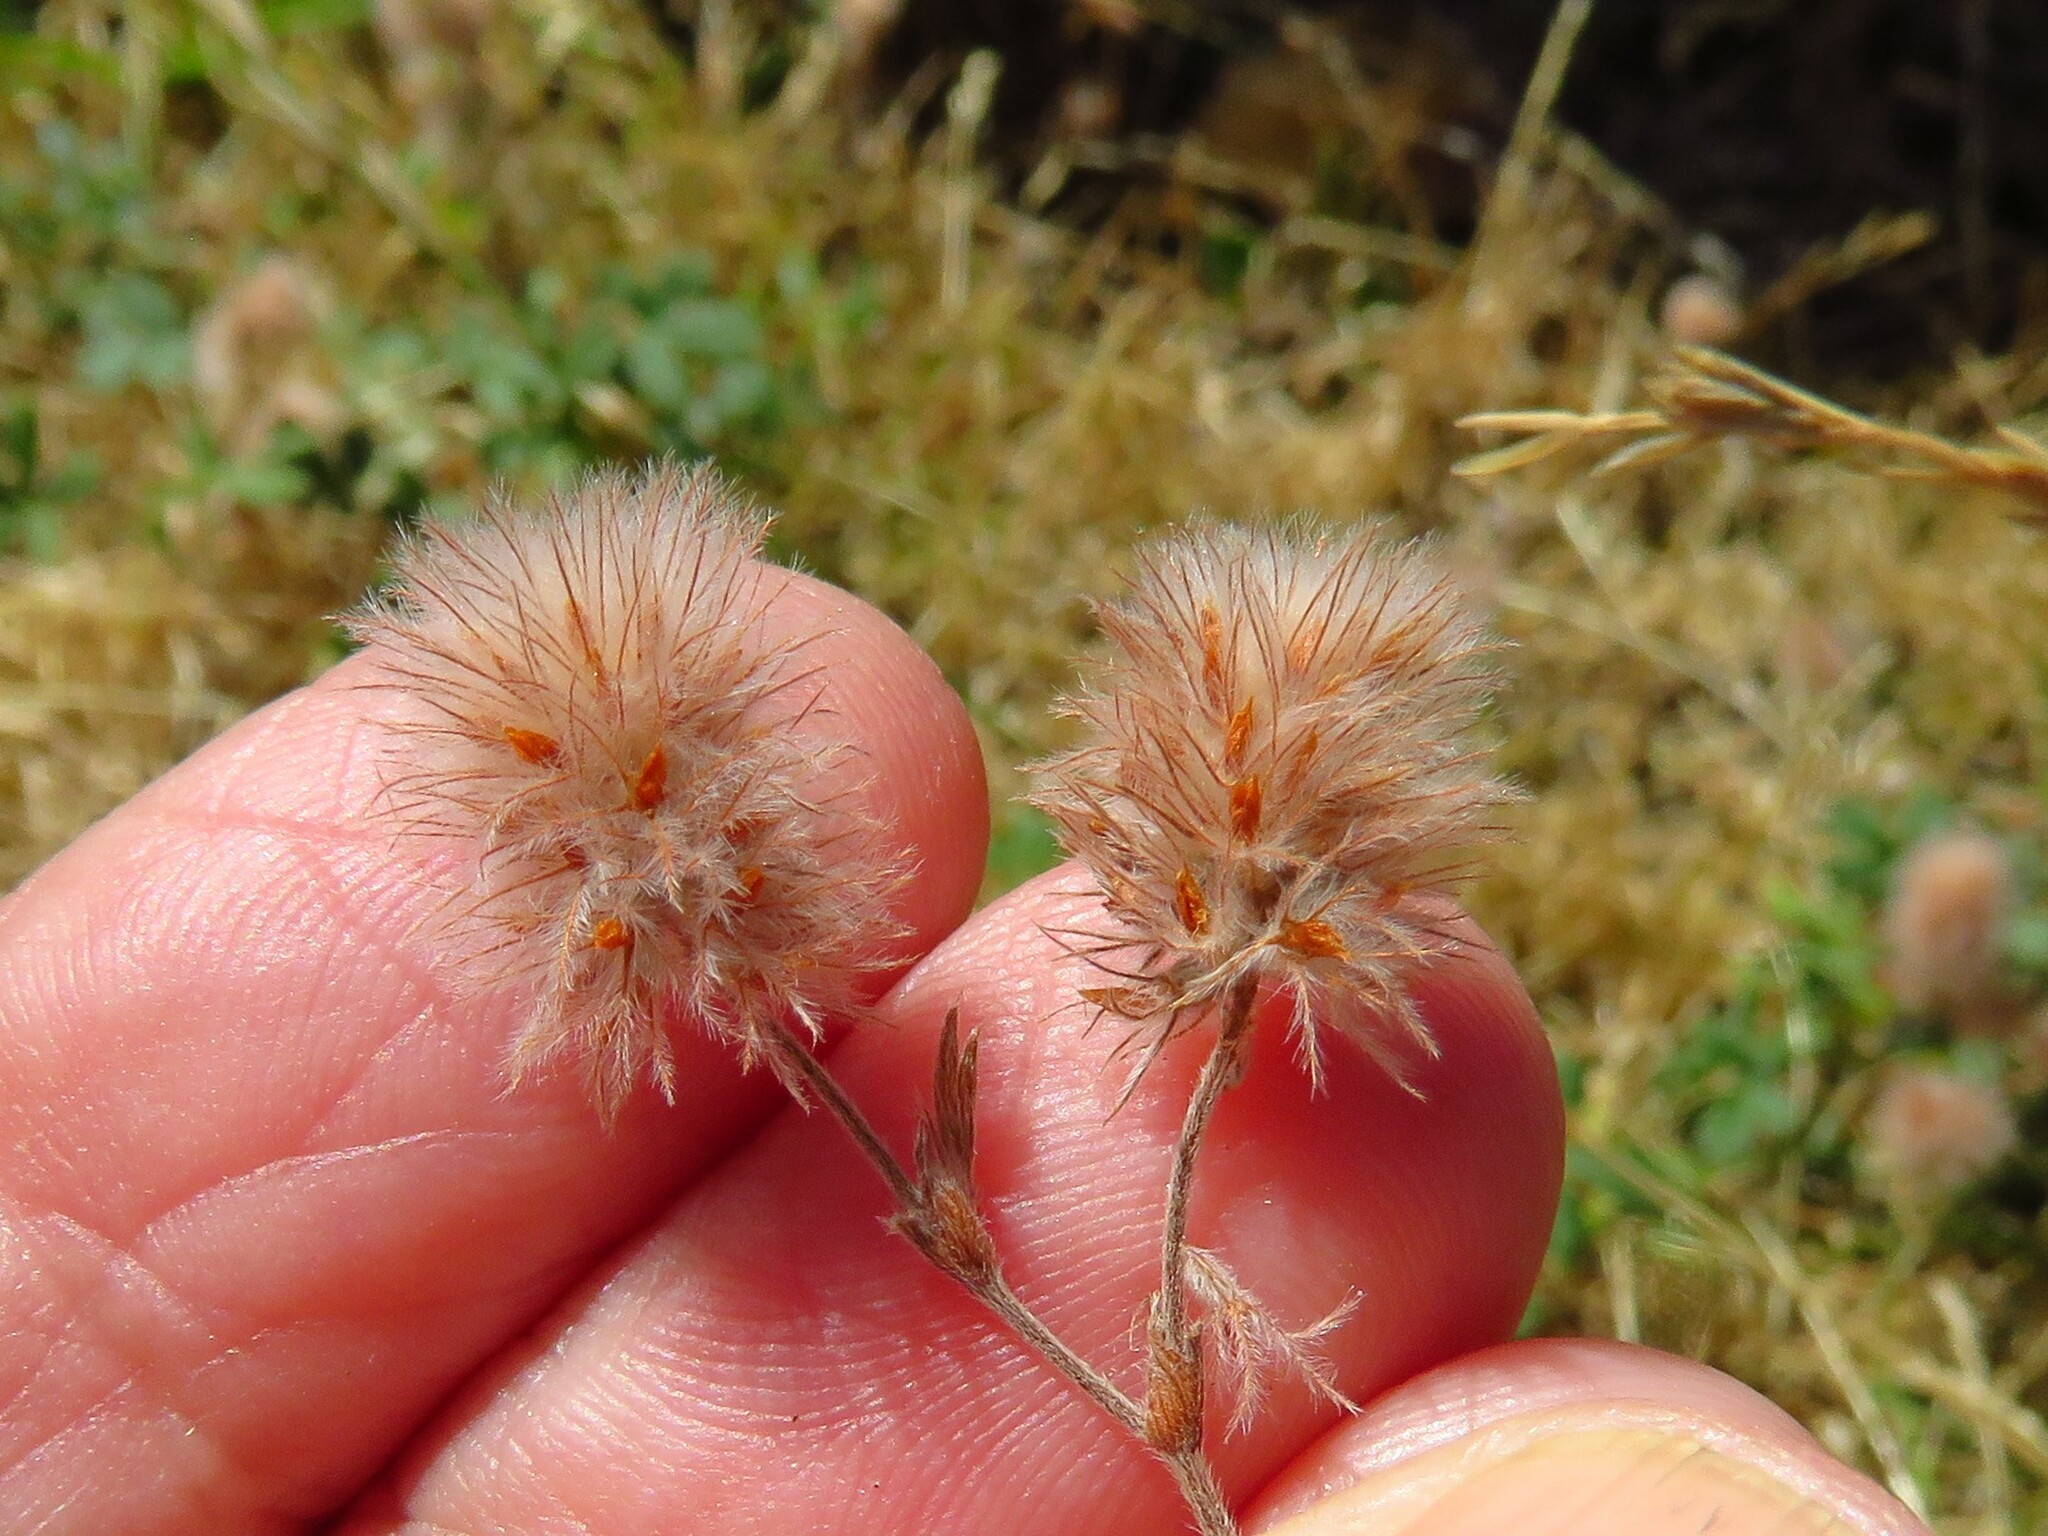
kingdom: Plantae
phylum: Tracheophyta
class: Magnoliopsida
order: Fabales
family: Fabaceae
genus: Trifolium
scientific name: Trifolium arvense
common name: Hare's-foot clover
